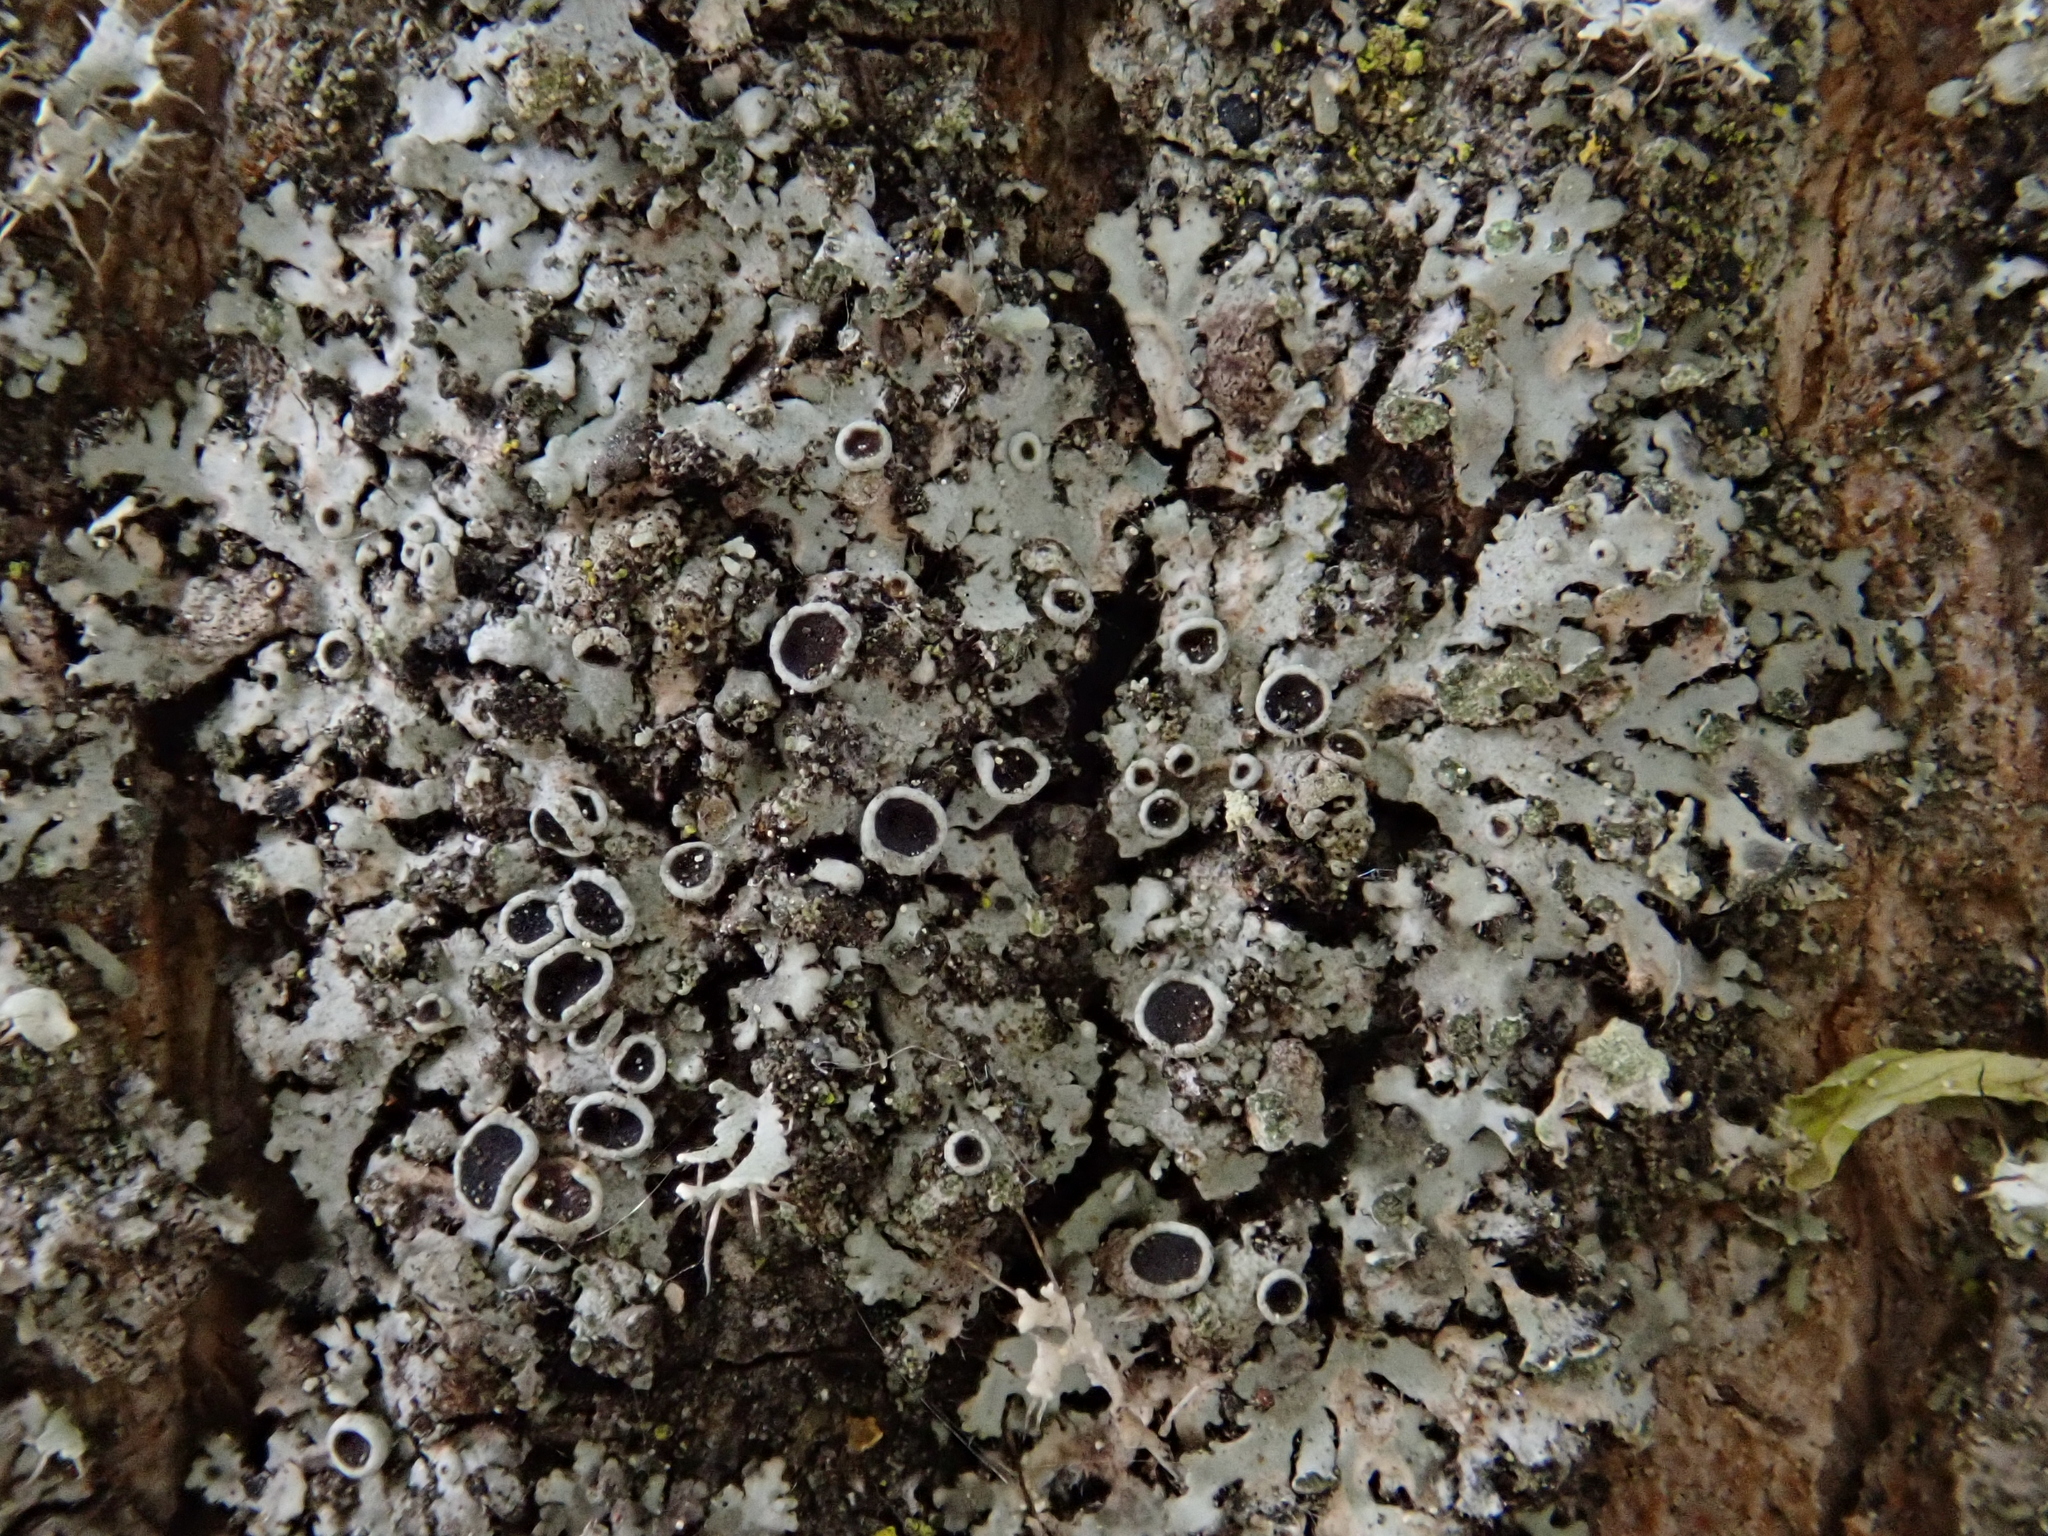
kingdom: Fungi
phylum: Ascomycota
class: Lecanoromycetes
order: Caliciales
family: Physciaceae
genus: Phaeophyscia
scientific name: Phaeophyscia orbicularis
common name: Mealy shadow lichen
